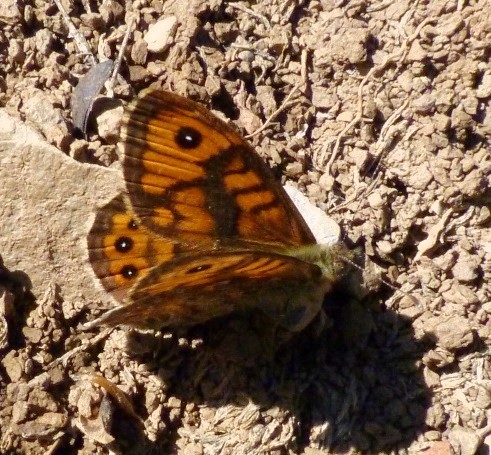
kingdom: Animalia
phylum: Arthropoda
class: Insecta
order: Lepidoptera
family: Nymphalidae
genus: Pararge
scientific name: Pararge Lasiommata megera
